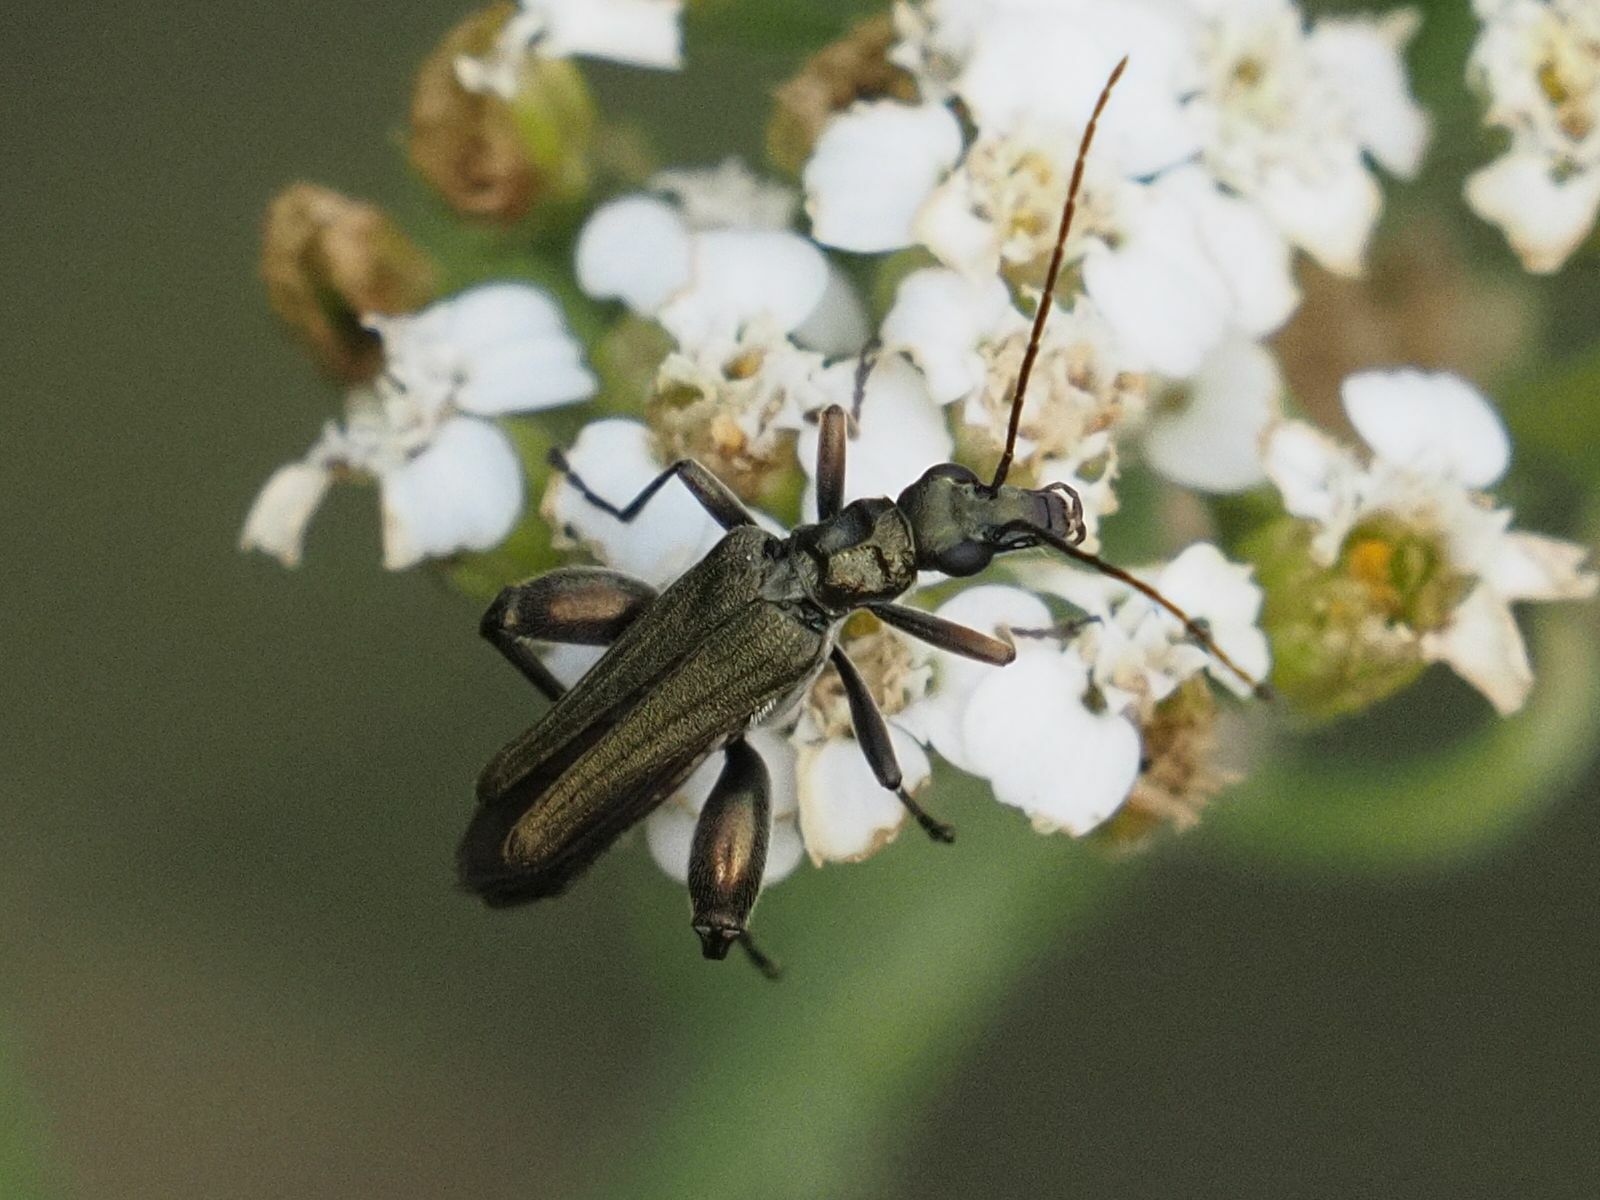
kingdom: Animalia
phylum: Arthropoda
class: Insecta
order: Coleoptera
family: Oedemeridae
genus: Oedemera
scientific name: Oedemera flavipes
